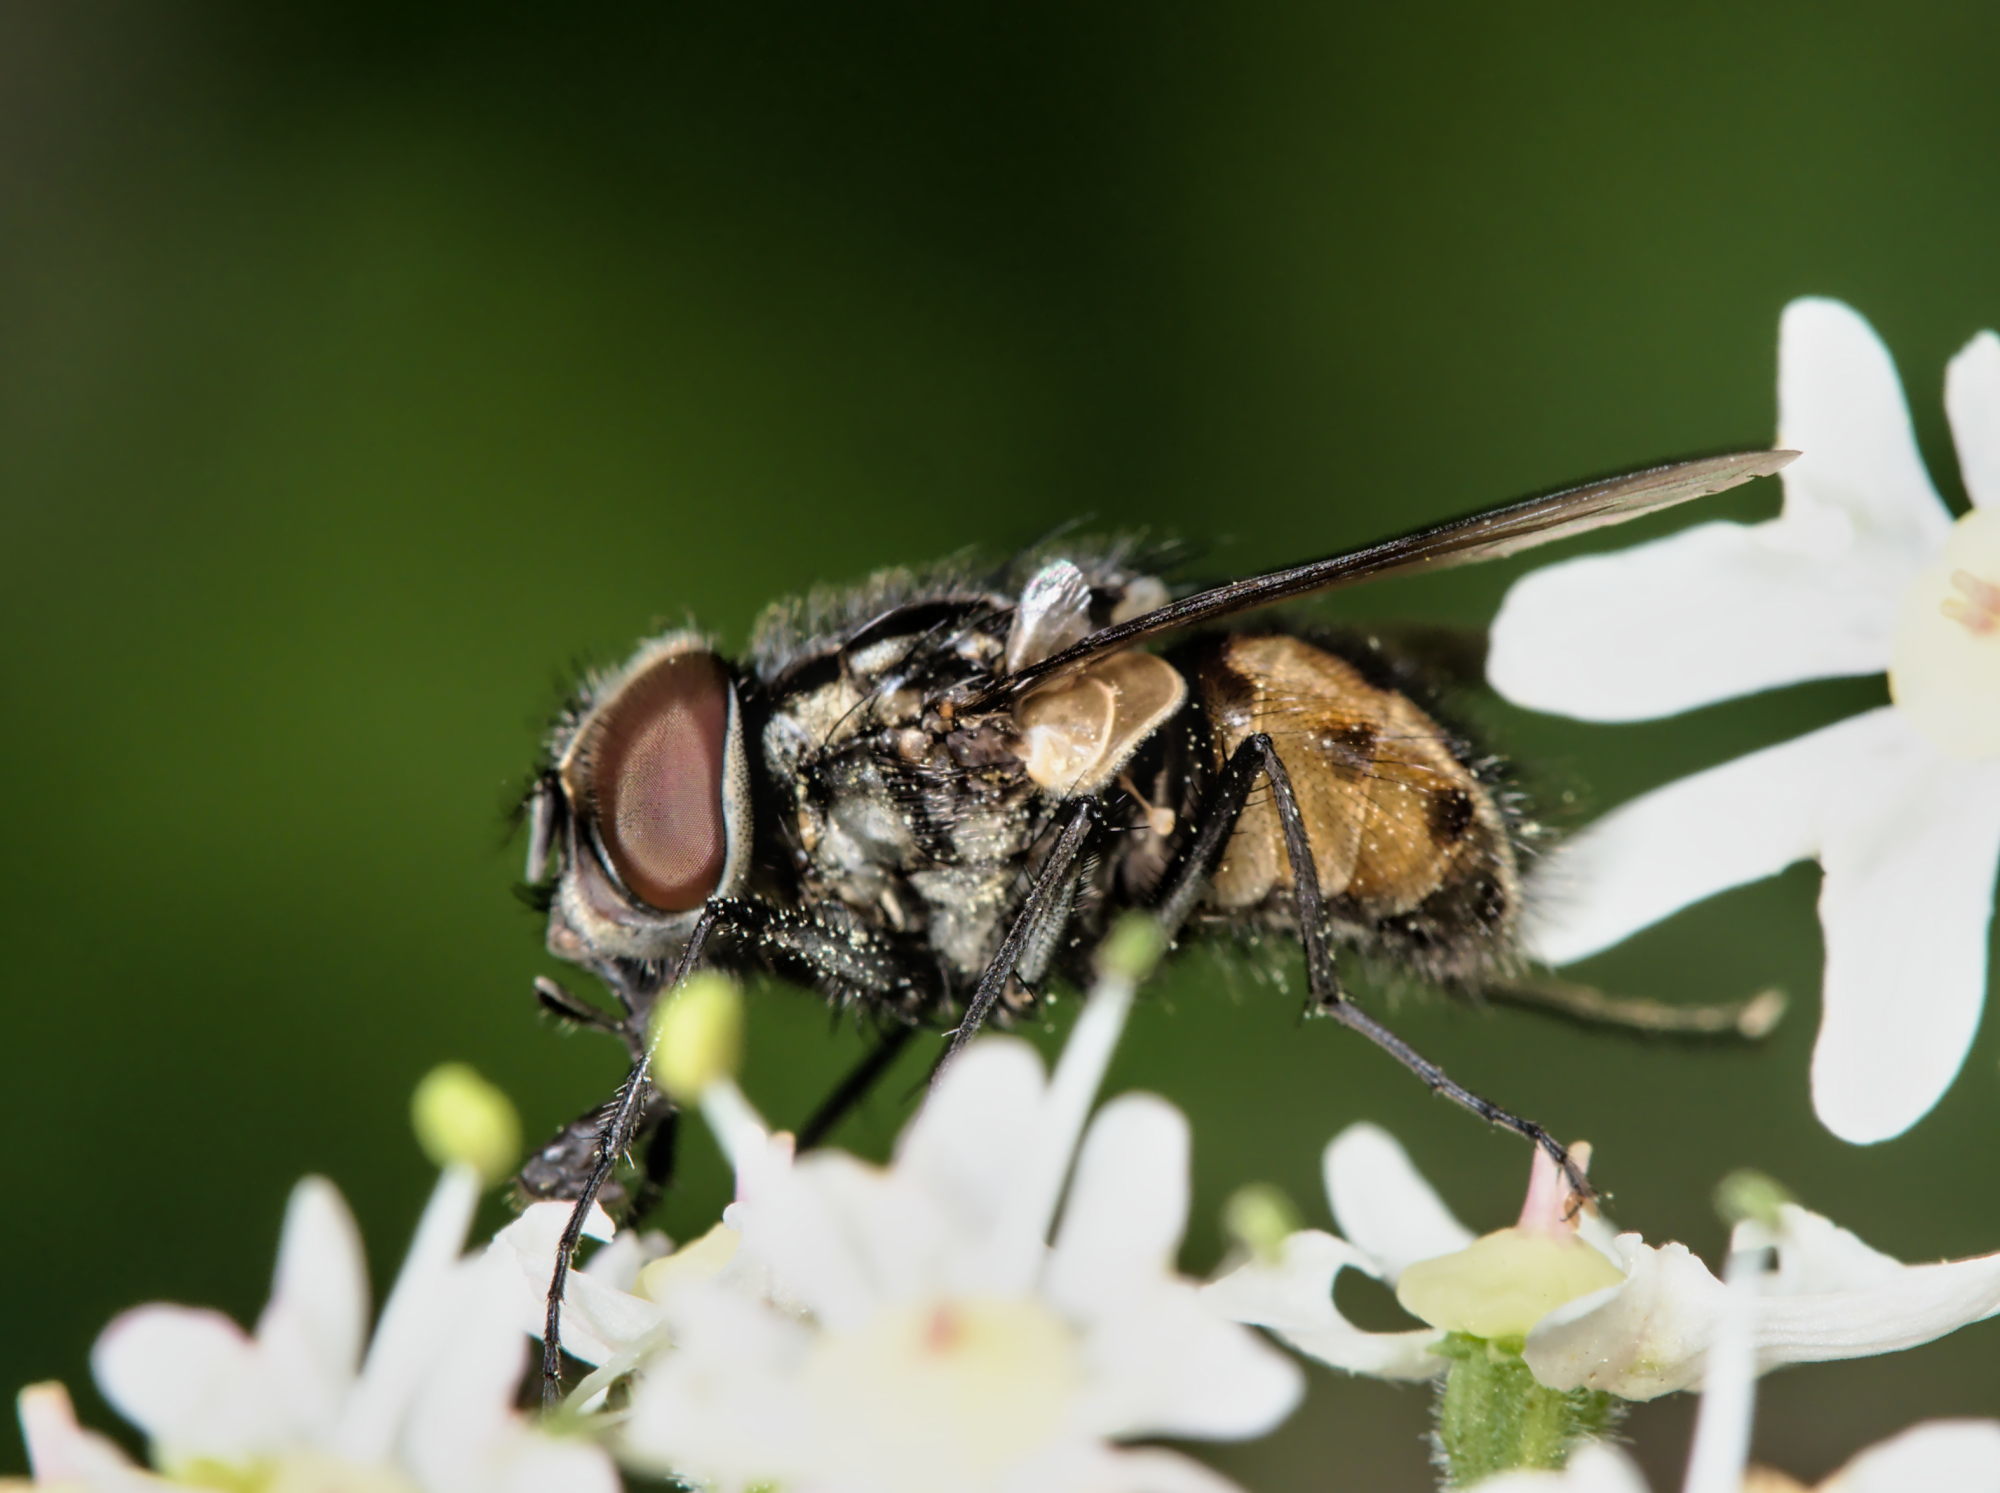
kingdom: Animalia
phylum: Arthropoda
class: Insecta
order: Diptera
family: Muscidae
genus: Graphomya
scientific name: Graphomya maculata
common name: Muscid fly
